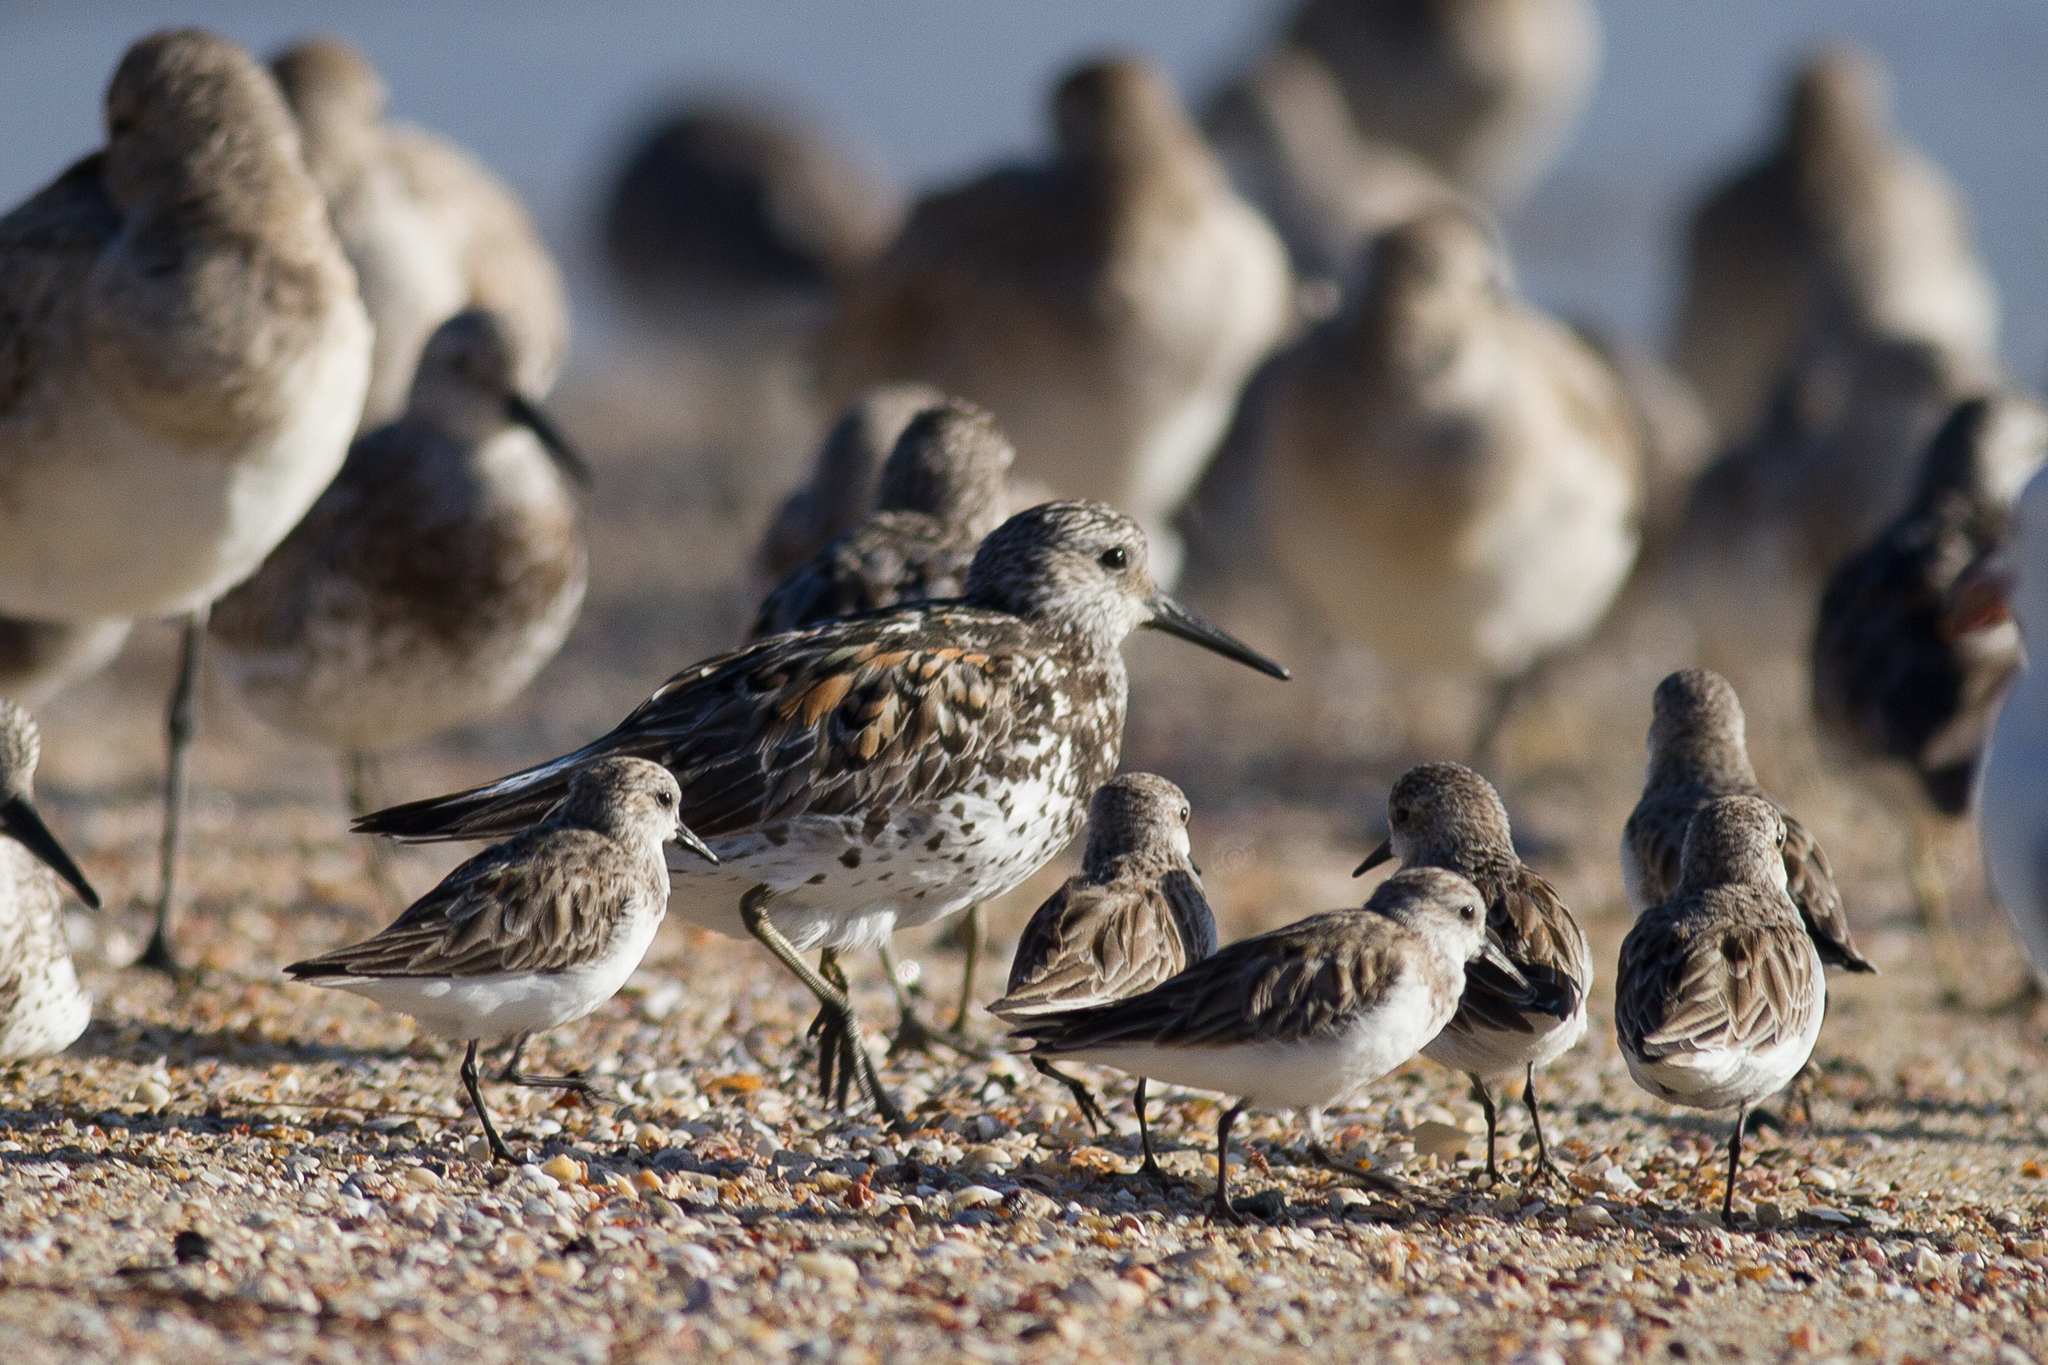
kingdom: Animalia
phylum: Chordata
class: Aves
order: Charadriiformes
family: Scolopacidae
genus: Calidris
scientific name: Calidris tenuirostris
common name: Great knot
